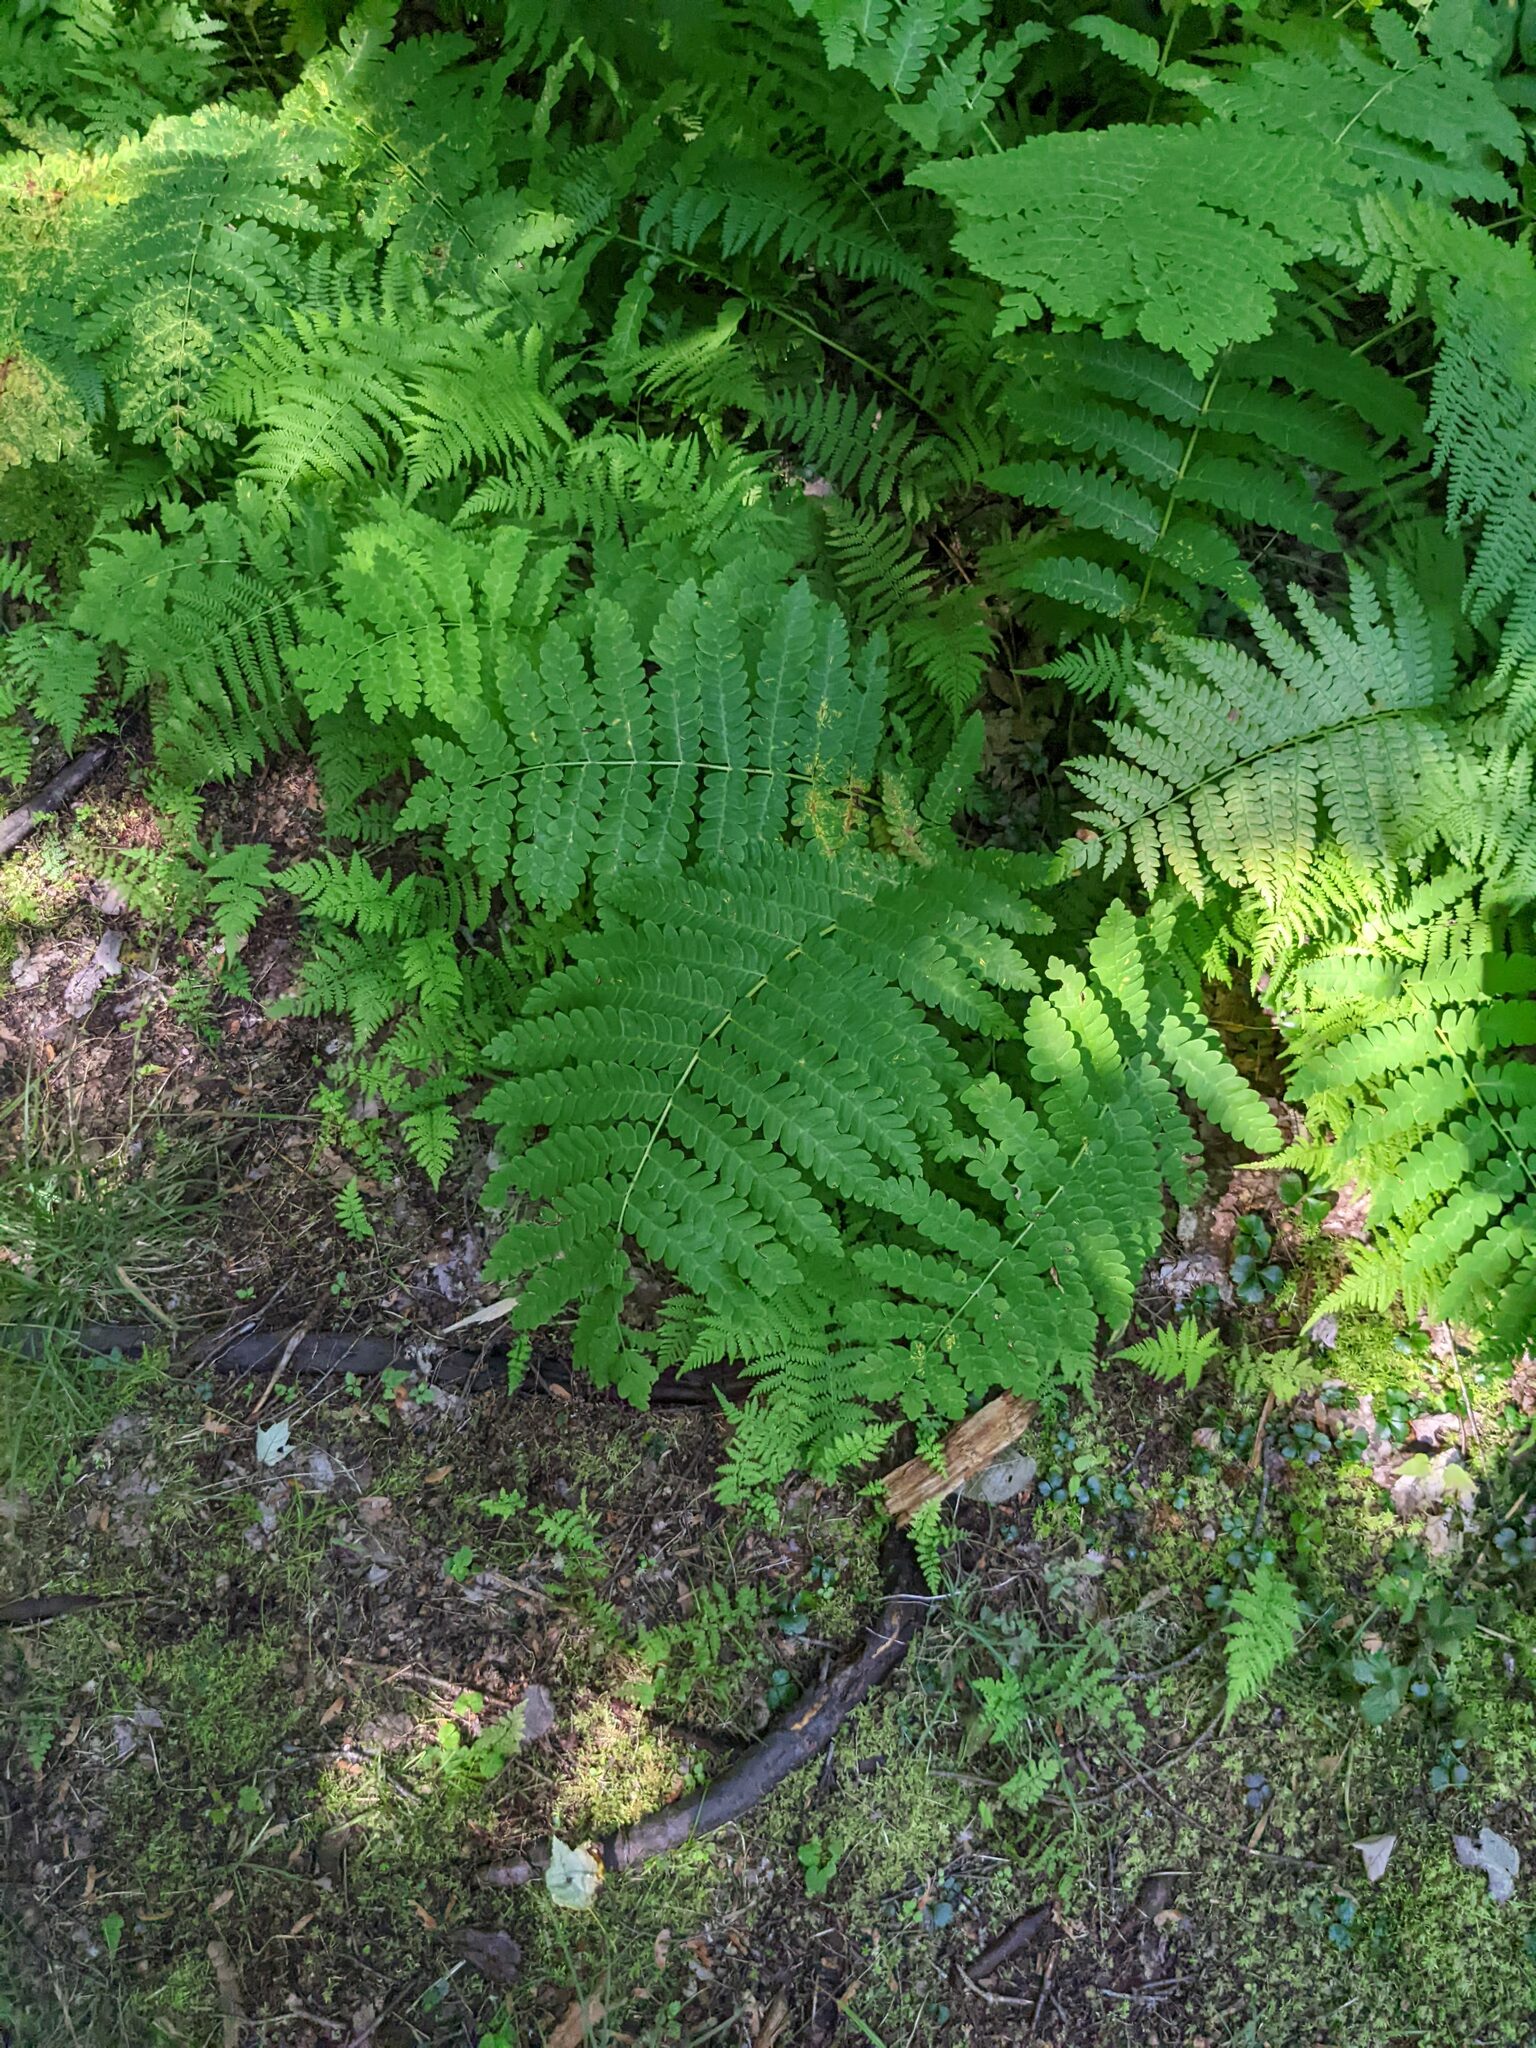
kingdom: Plantae
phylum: Tracheophyta
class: Polypodiopsida
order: Osmundales
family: Osmundaceae
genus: Claytosmunda
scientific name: Claytosmunda claytoniana
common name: Clayton's fern
